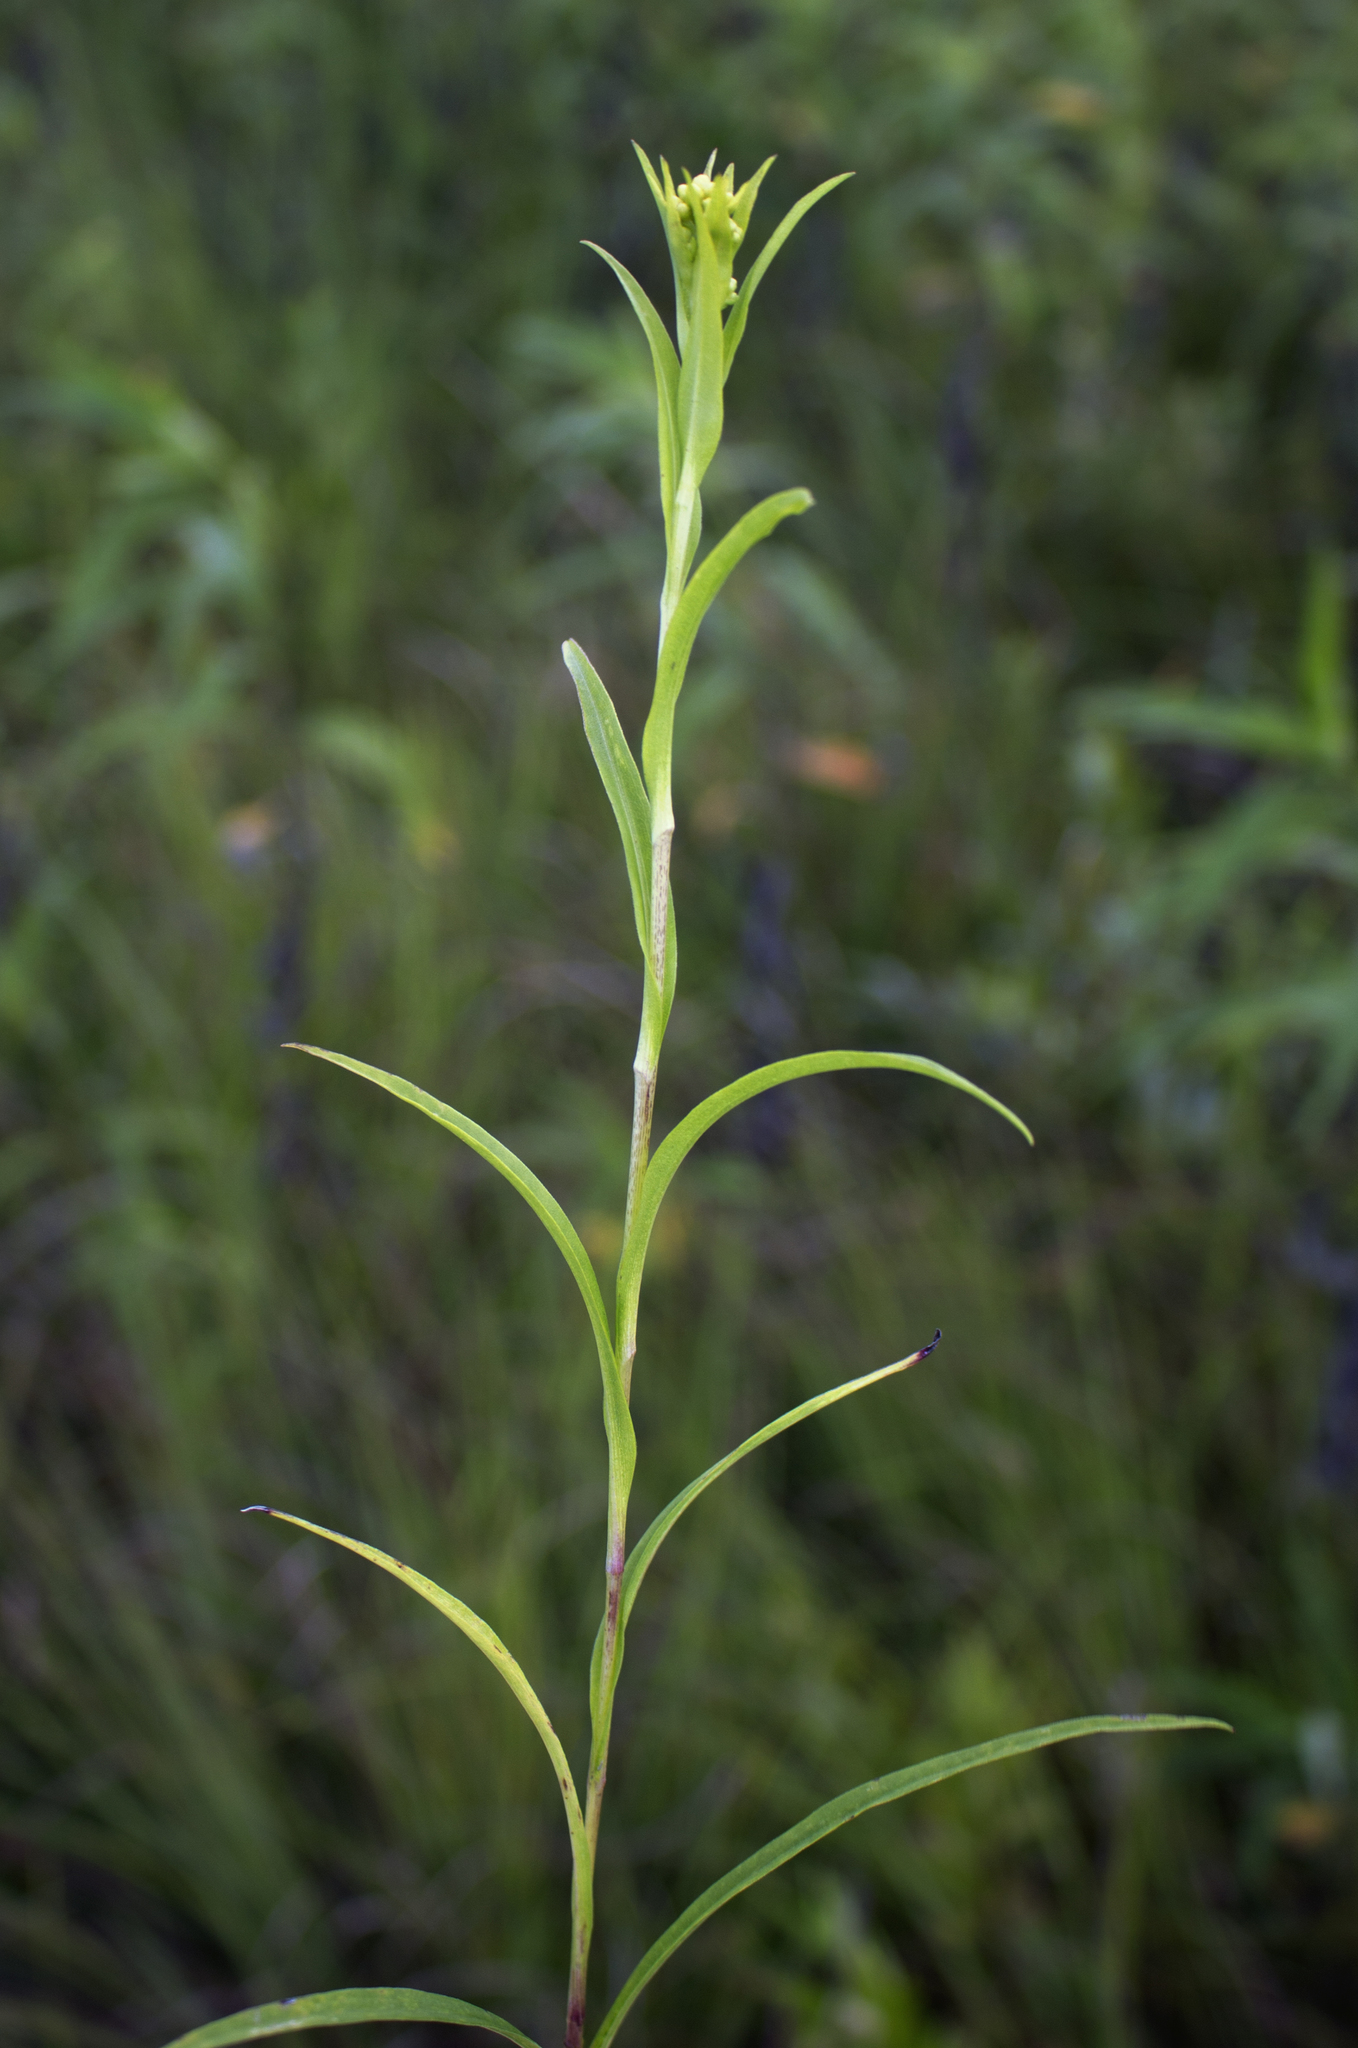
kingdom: Plantae
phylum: Tracheophyta
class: Magnoliopsida
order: Asterales
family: Asteraceae
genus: Solidago
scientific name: Solidago riddellii
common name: Riddell's goldenrod
